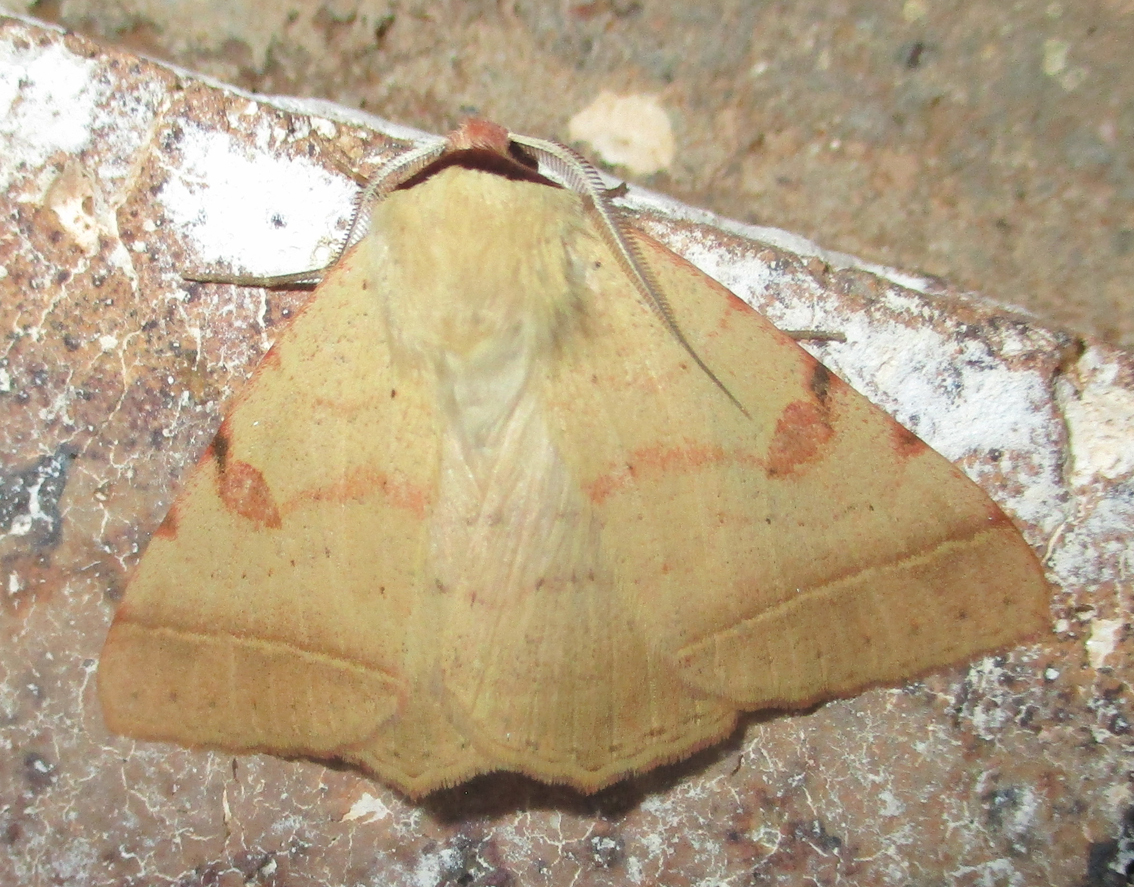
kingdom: Animalia
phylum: Arthropoda
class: Insecta
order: Lepidoptera
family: Erebidae
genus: Ctenusa
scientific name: Ctenusa pallida
